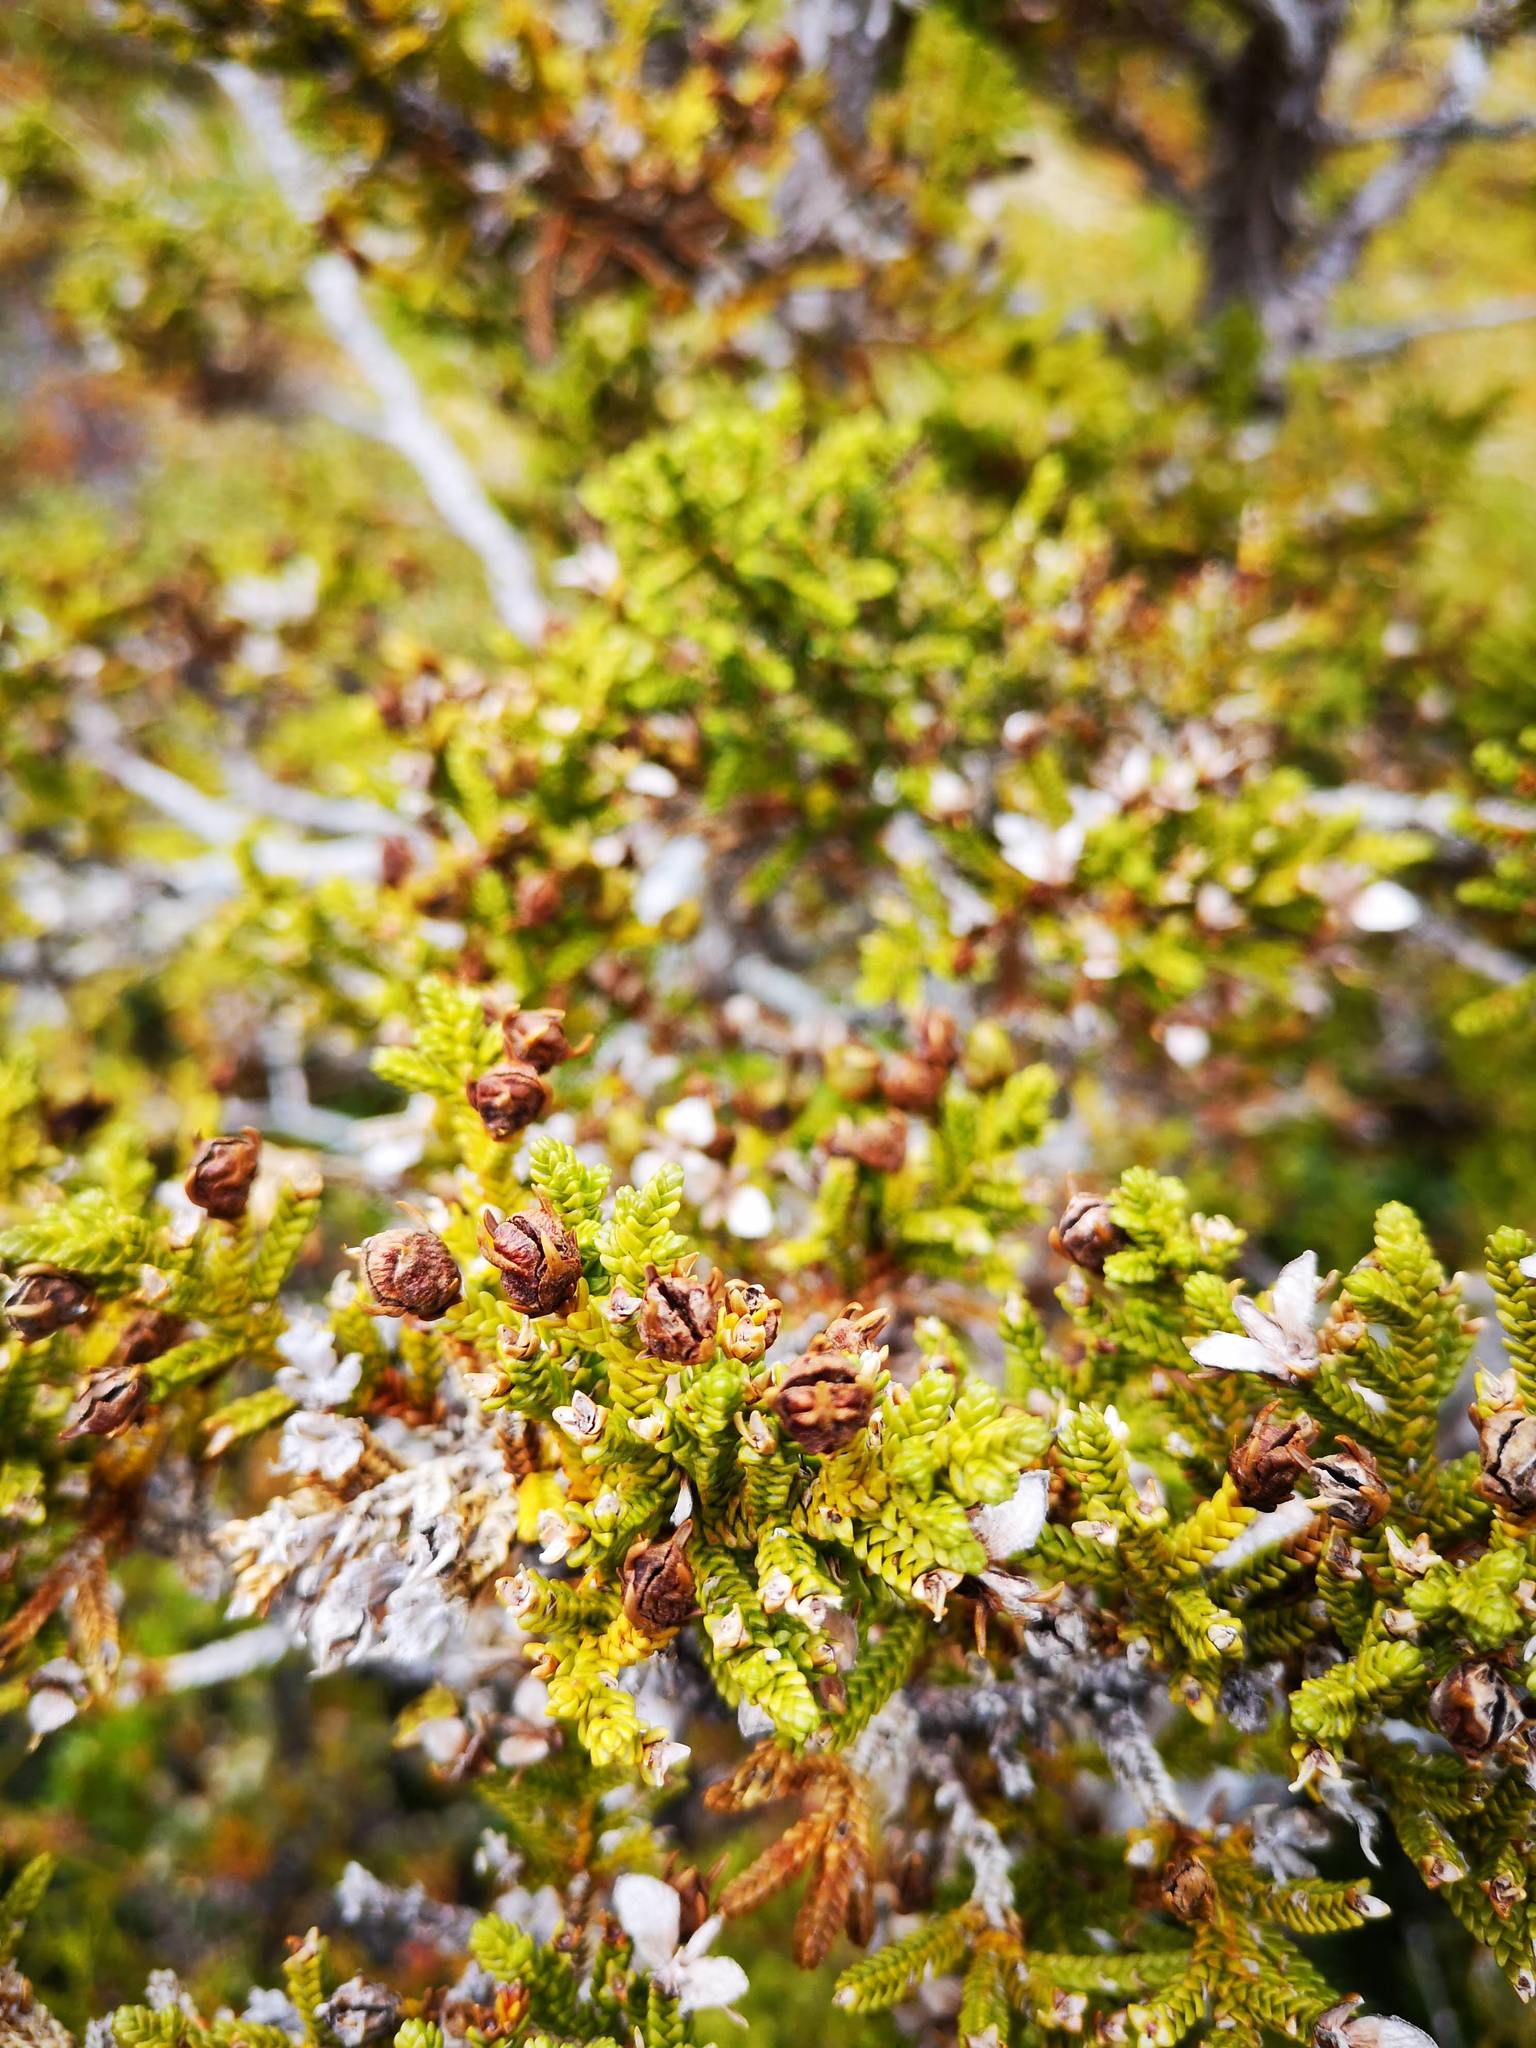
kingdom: Plantae
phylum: Tracheophyta
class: Pinopsida
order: Pinales
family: Cupressaceae
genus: Pilgerodendron
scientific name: Pilgerodendron uviferum
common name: Guaitecas cypress
